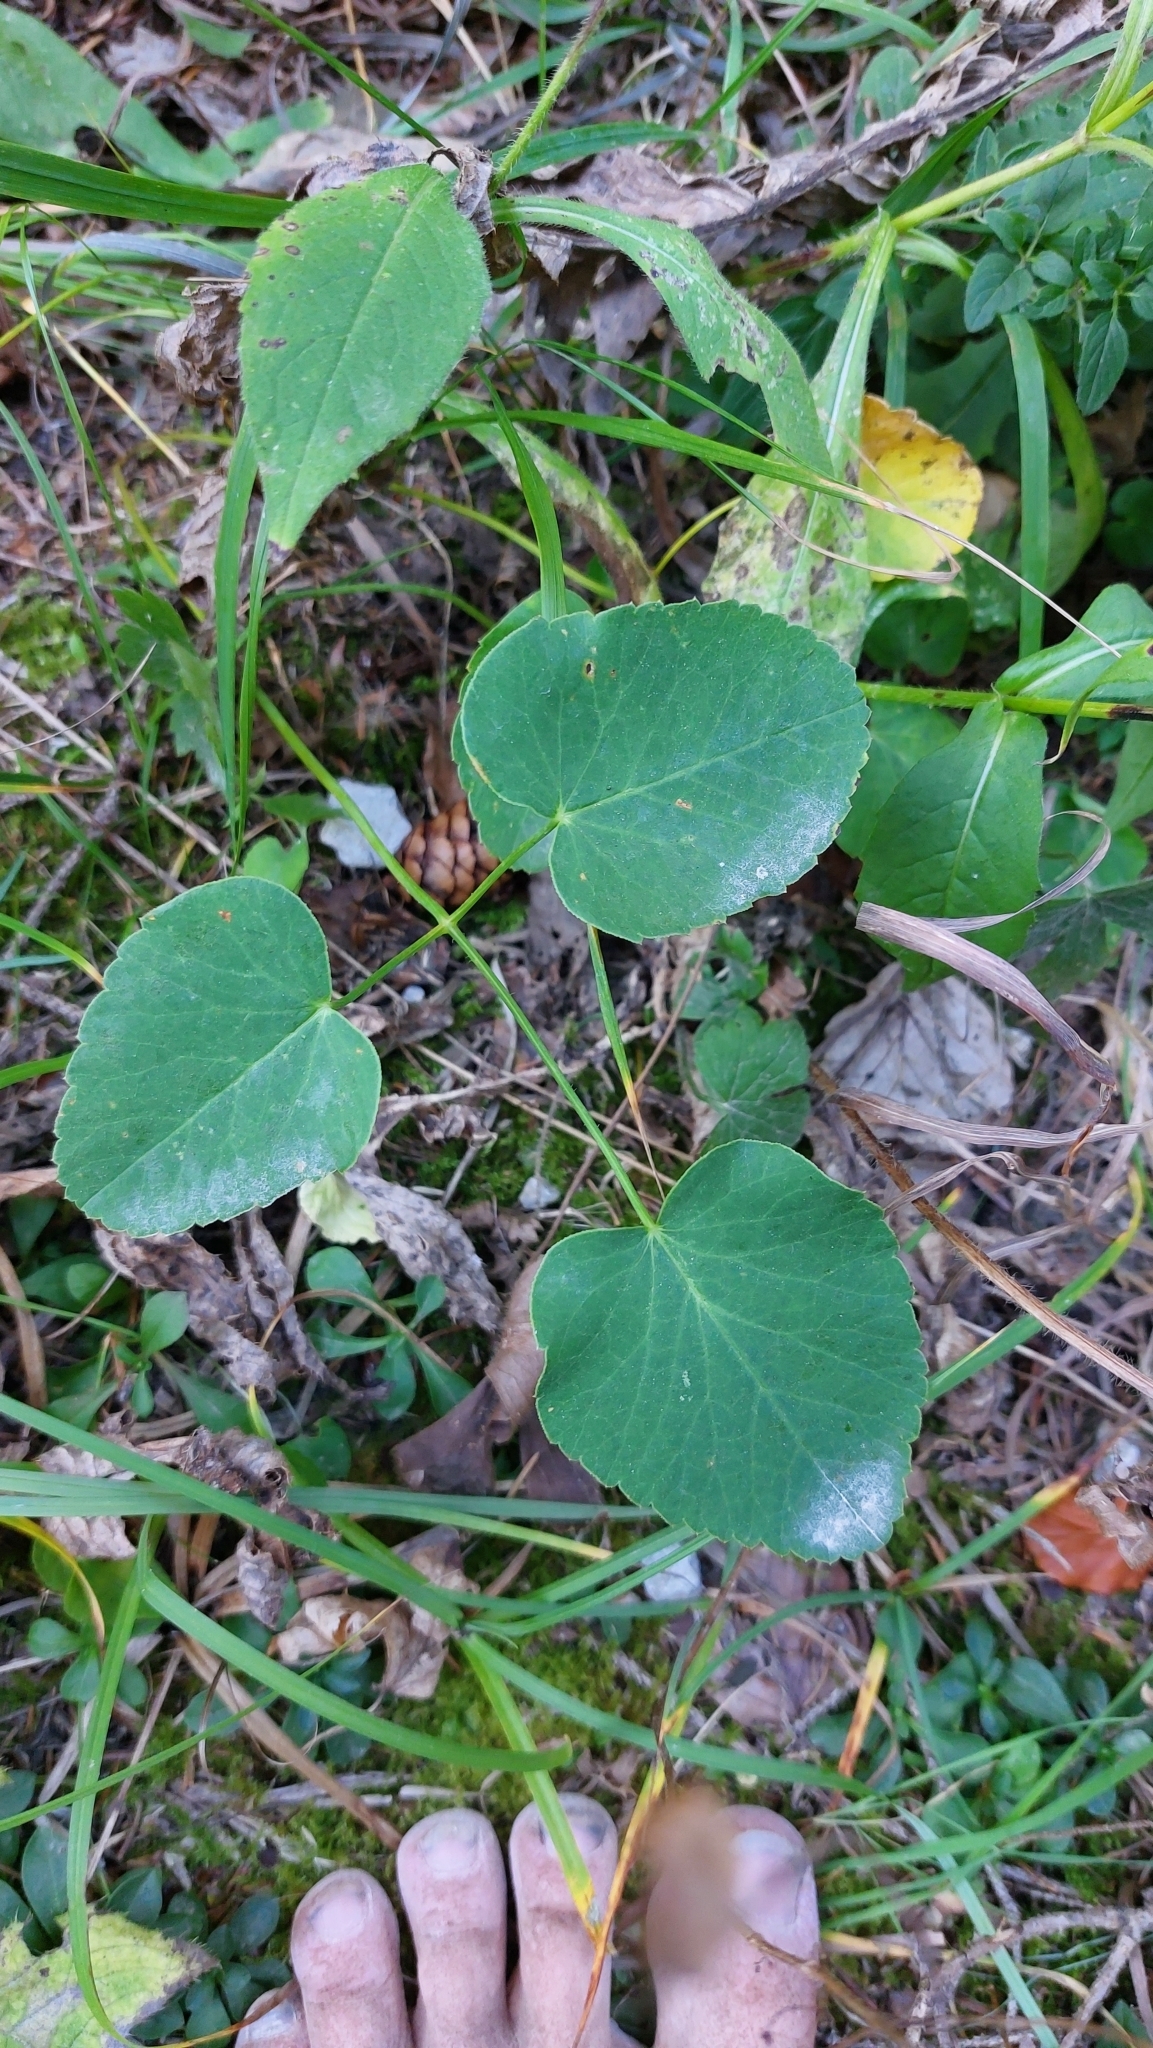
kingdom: Plantae
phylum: Tracheophyta
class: Magnoliopsida
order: Apiales
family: Apiaceae
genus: Laserpitium
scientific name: Laserpitium latifolium
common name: Broadleaf sermountain
